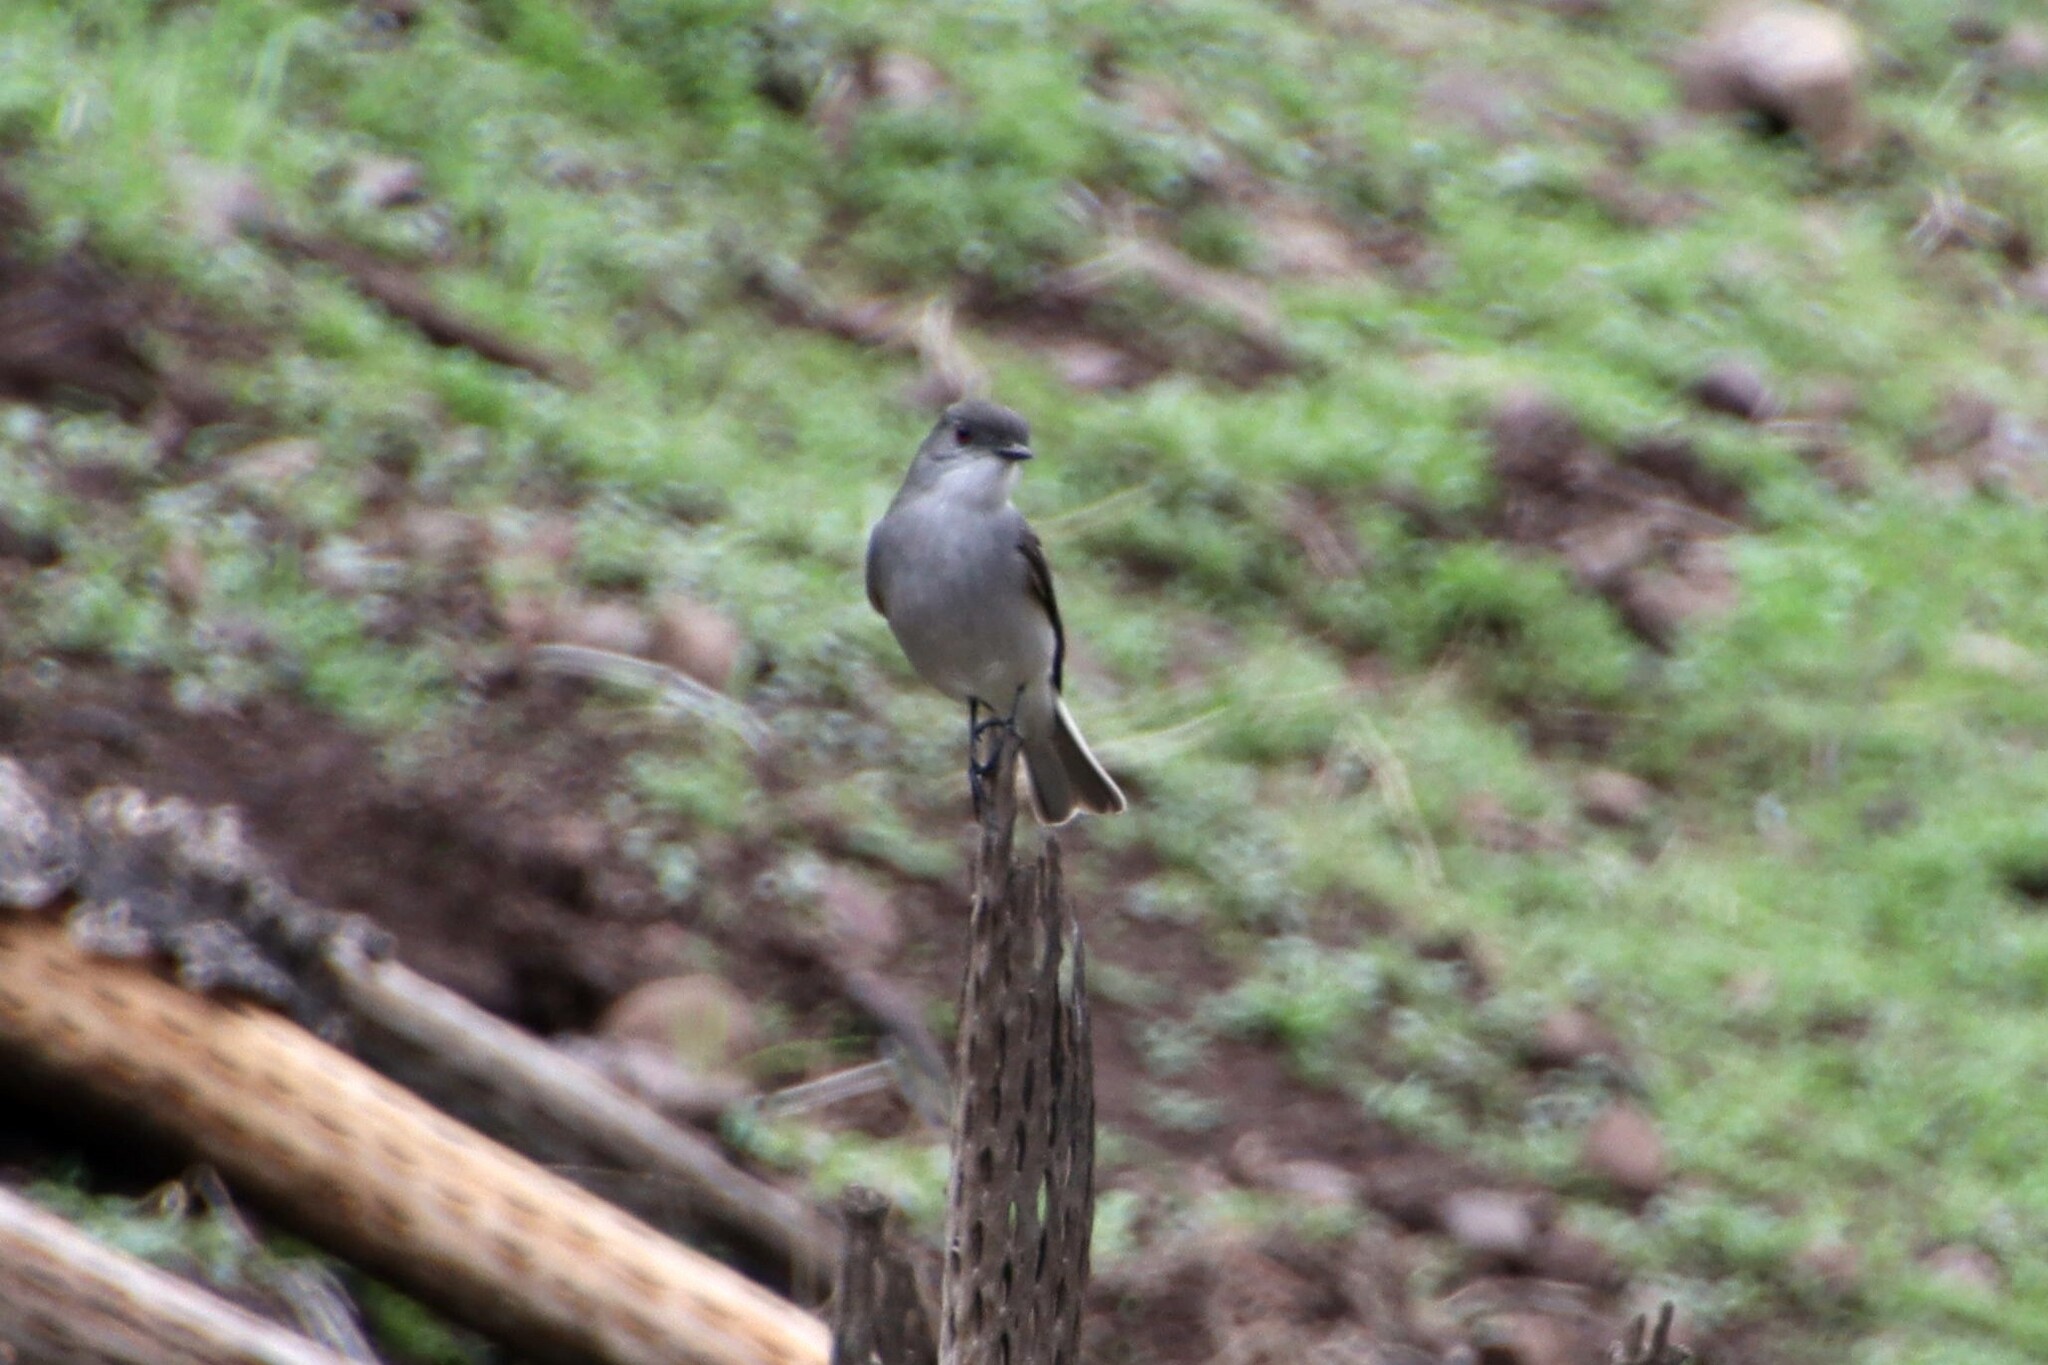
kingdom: Animalia
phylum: Chordata
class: Aves
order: Passeriformes
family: Tyrannidae
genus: Xolmis
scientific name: Xolmis pyrope
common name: Fire-eyed diucon
